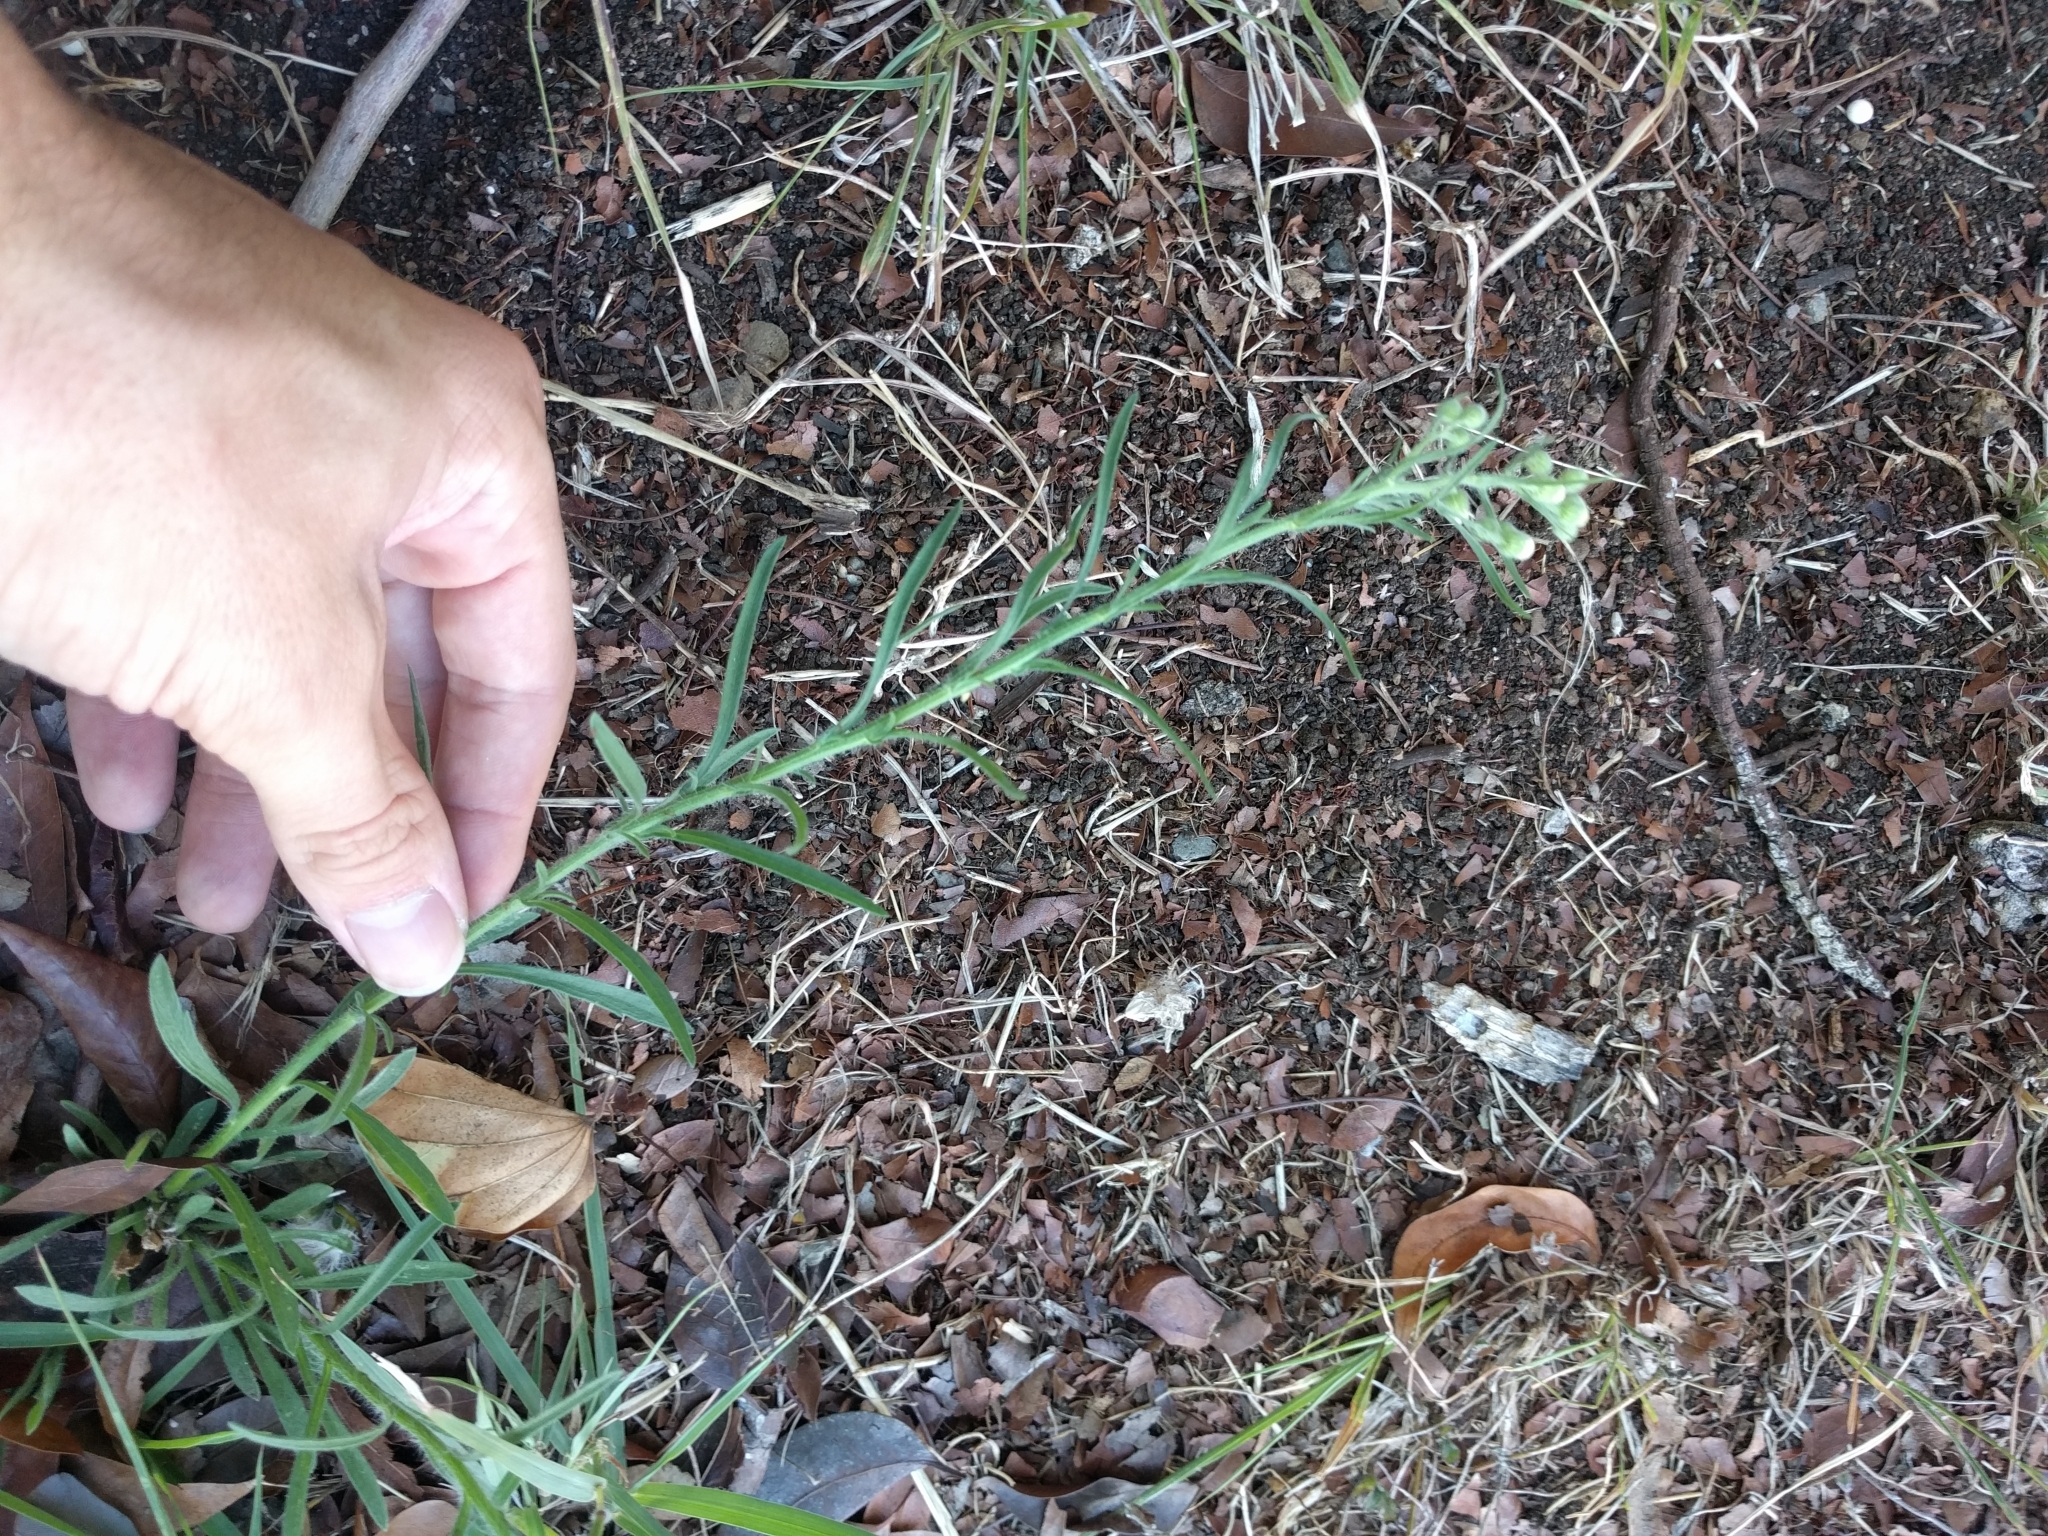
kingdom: Plantae
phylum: Tracheophyta
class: Magnoliopsida
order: Asterales
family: Asteraceae
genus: Erigeron
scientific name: Erigeron bonariensis
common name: Argentine fleabane
